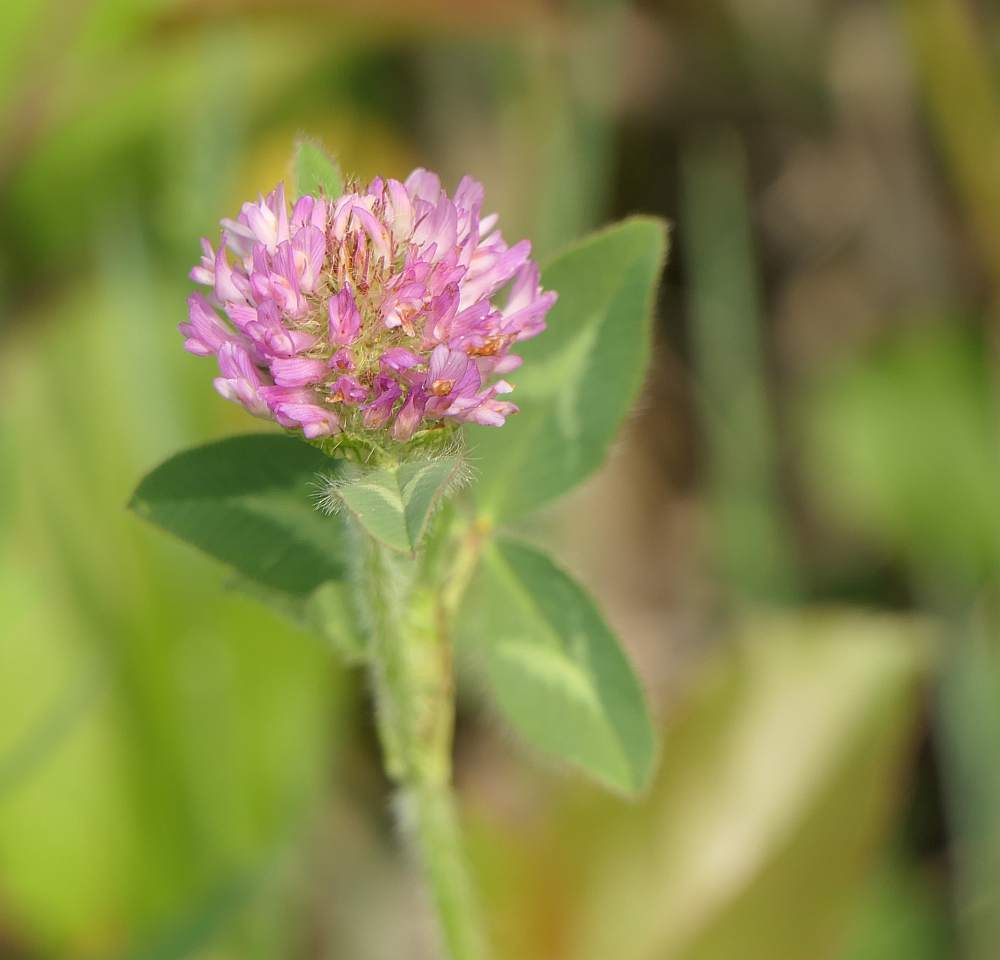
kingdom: Plantae
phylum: Tracheophyta
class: Magnoliopsida
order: Fabales
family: Fabaceae
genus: Trifolium
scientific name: Trifolium pratense
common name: Red clover
